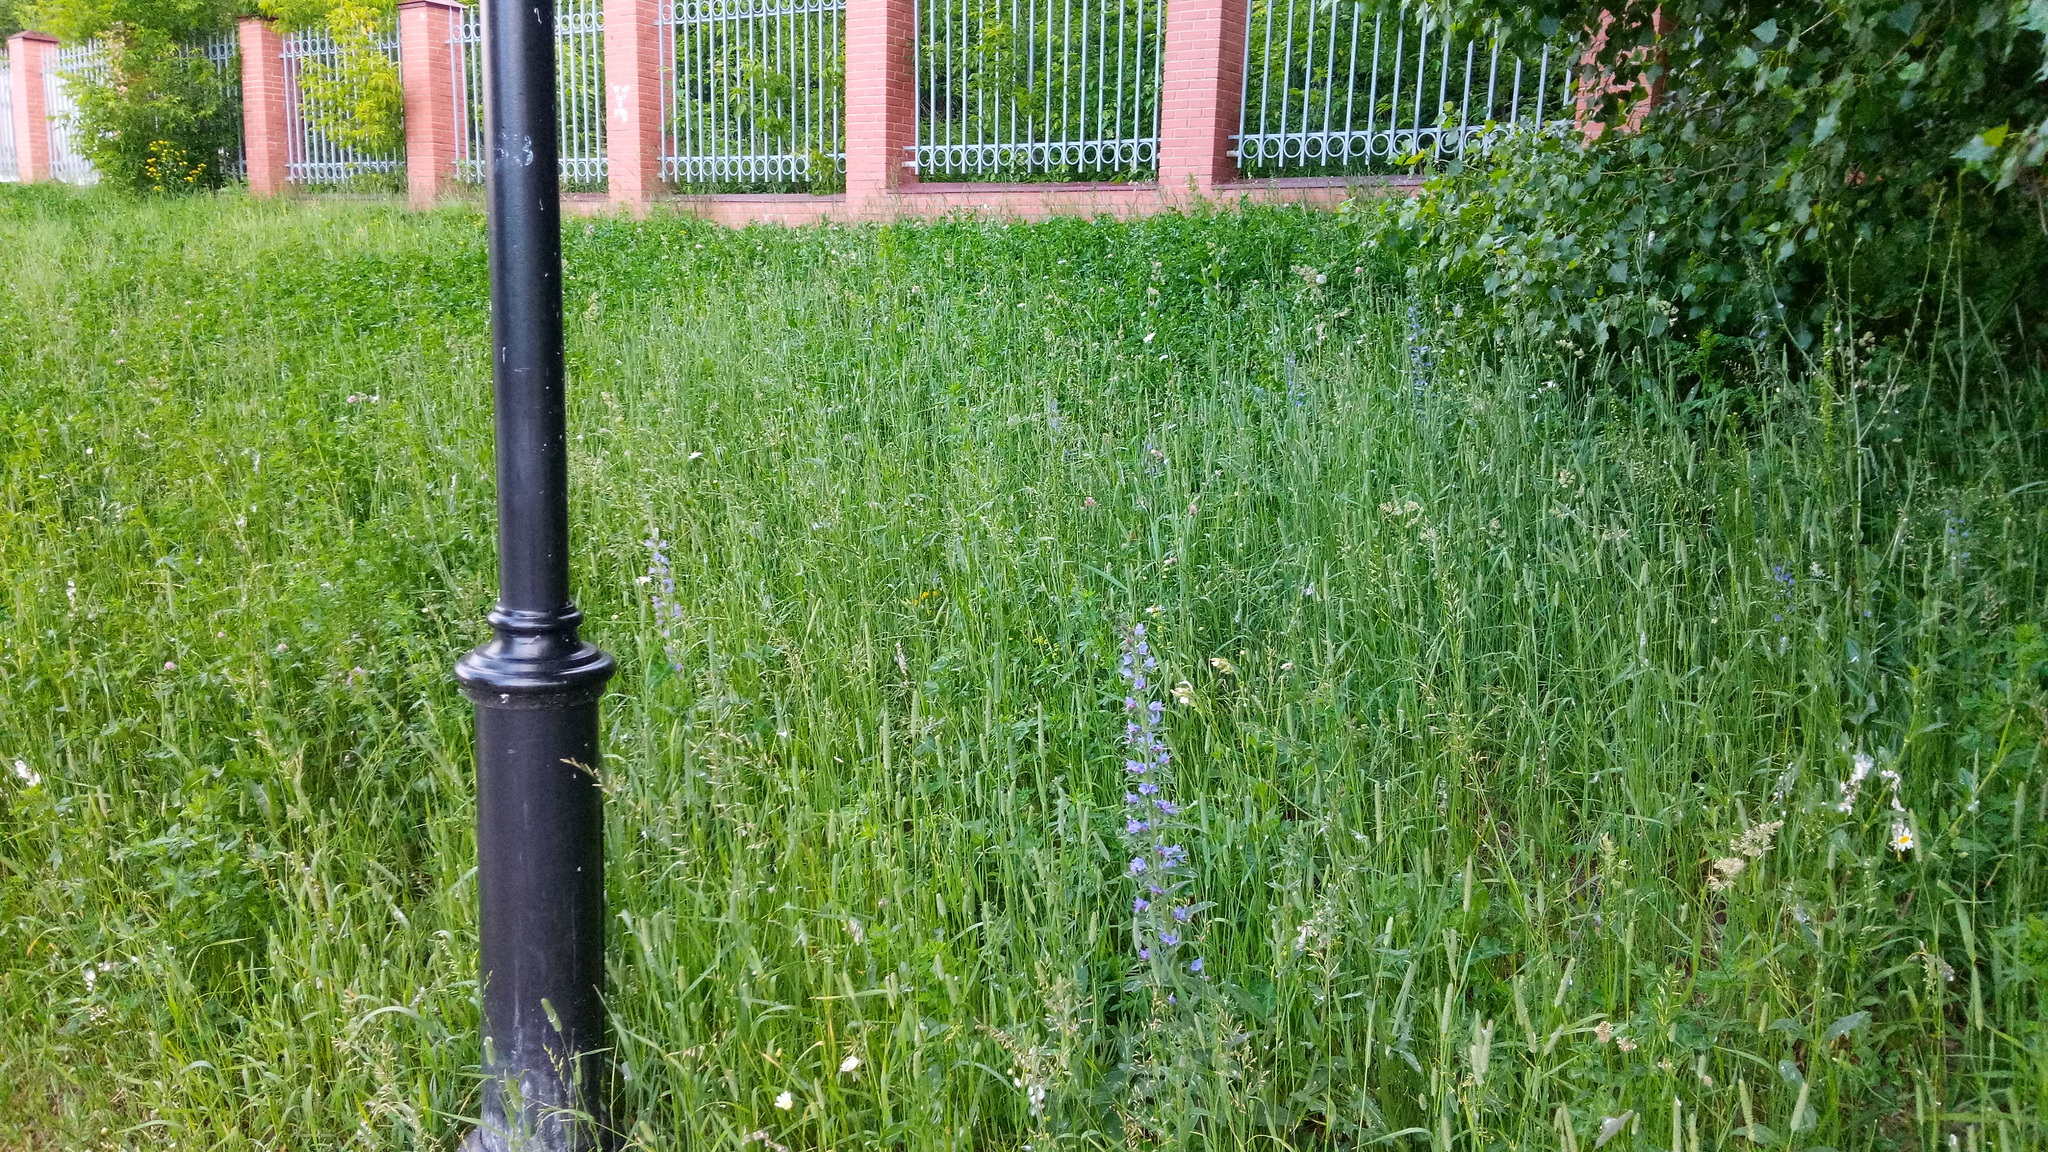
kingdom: Plantae
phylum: Tracheophyta
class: Magnoliopsida
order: Boraginales
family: Boraginaceae
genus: Echium
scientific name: Echium vulgare
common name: Common viper's bugloss
